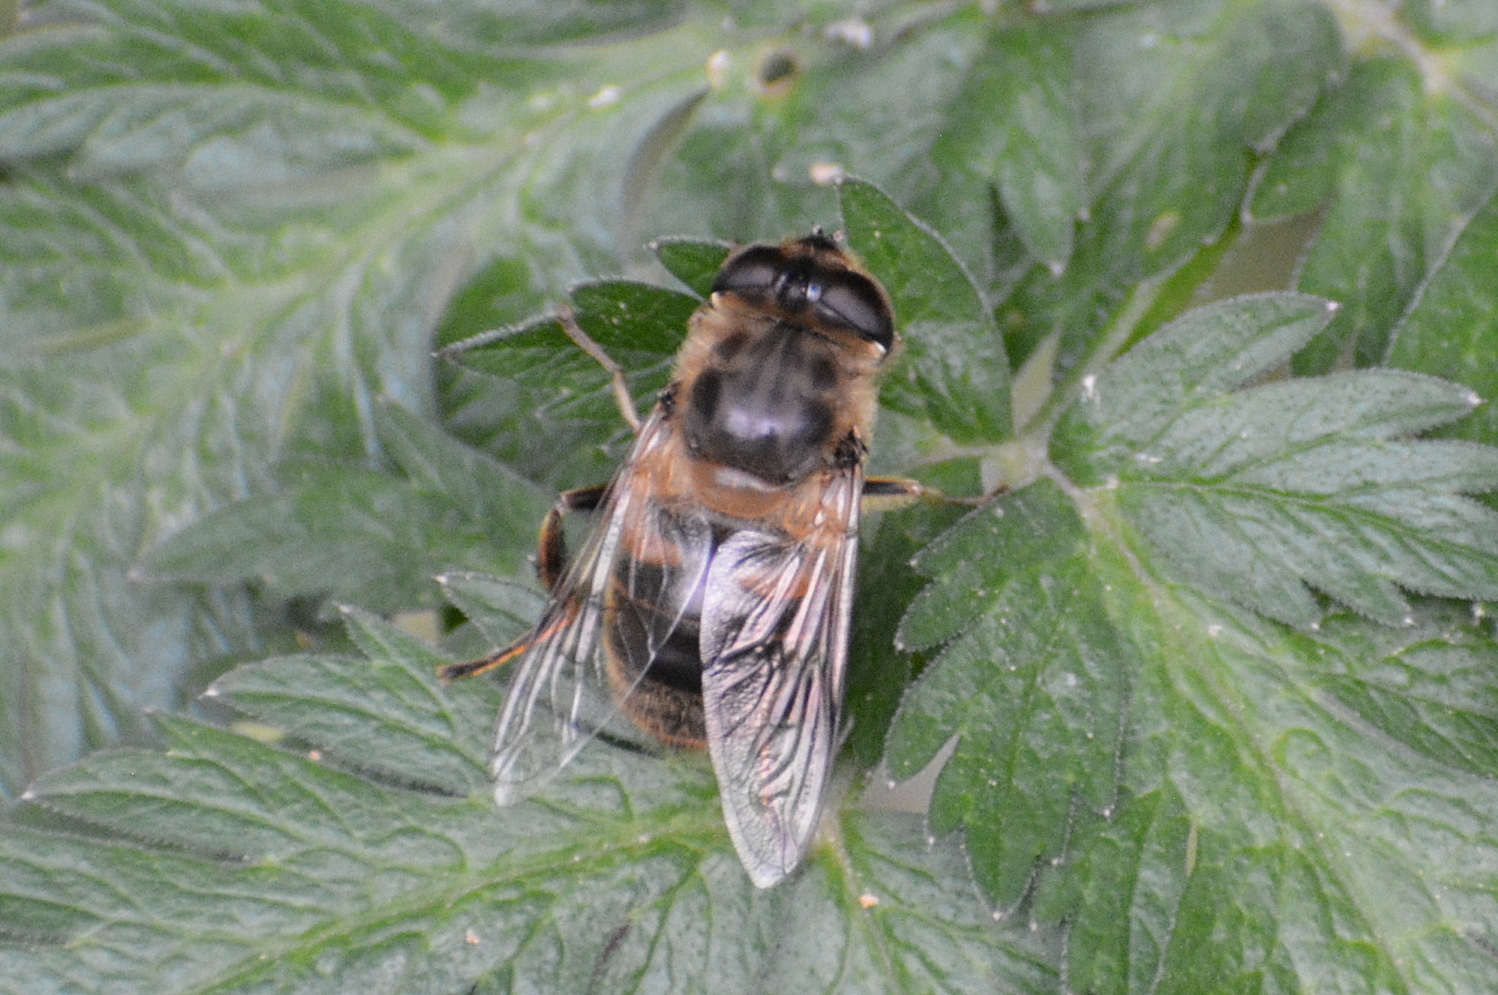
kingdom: Animalia
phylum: Arthropoda
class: Insecta
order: Diptera
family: Syrphidae
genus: Eristalis
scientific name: Eristalis tenax
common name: Drone fly
